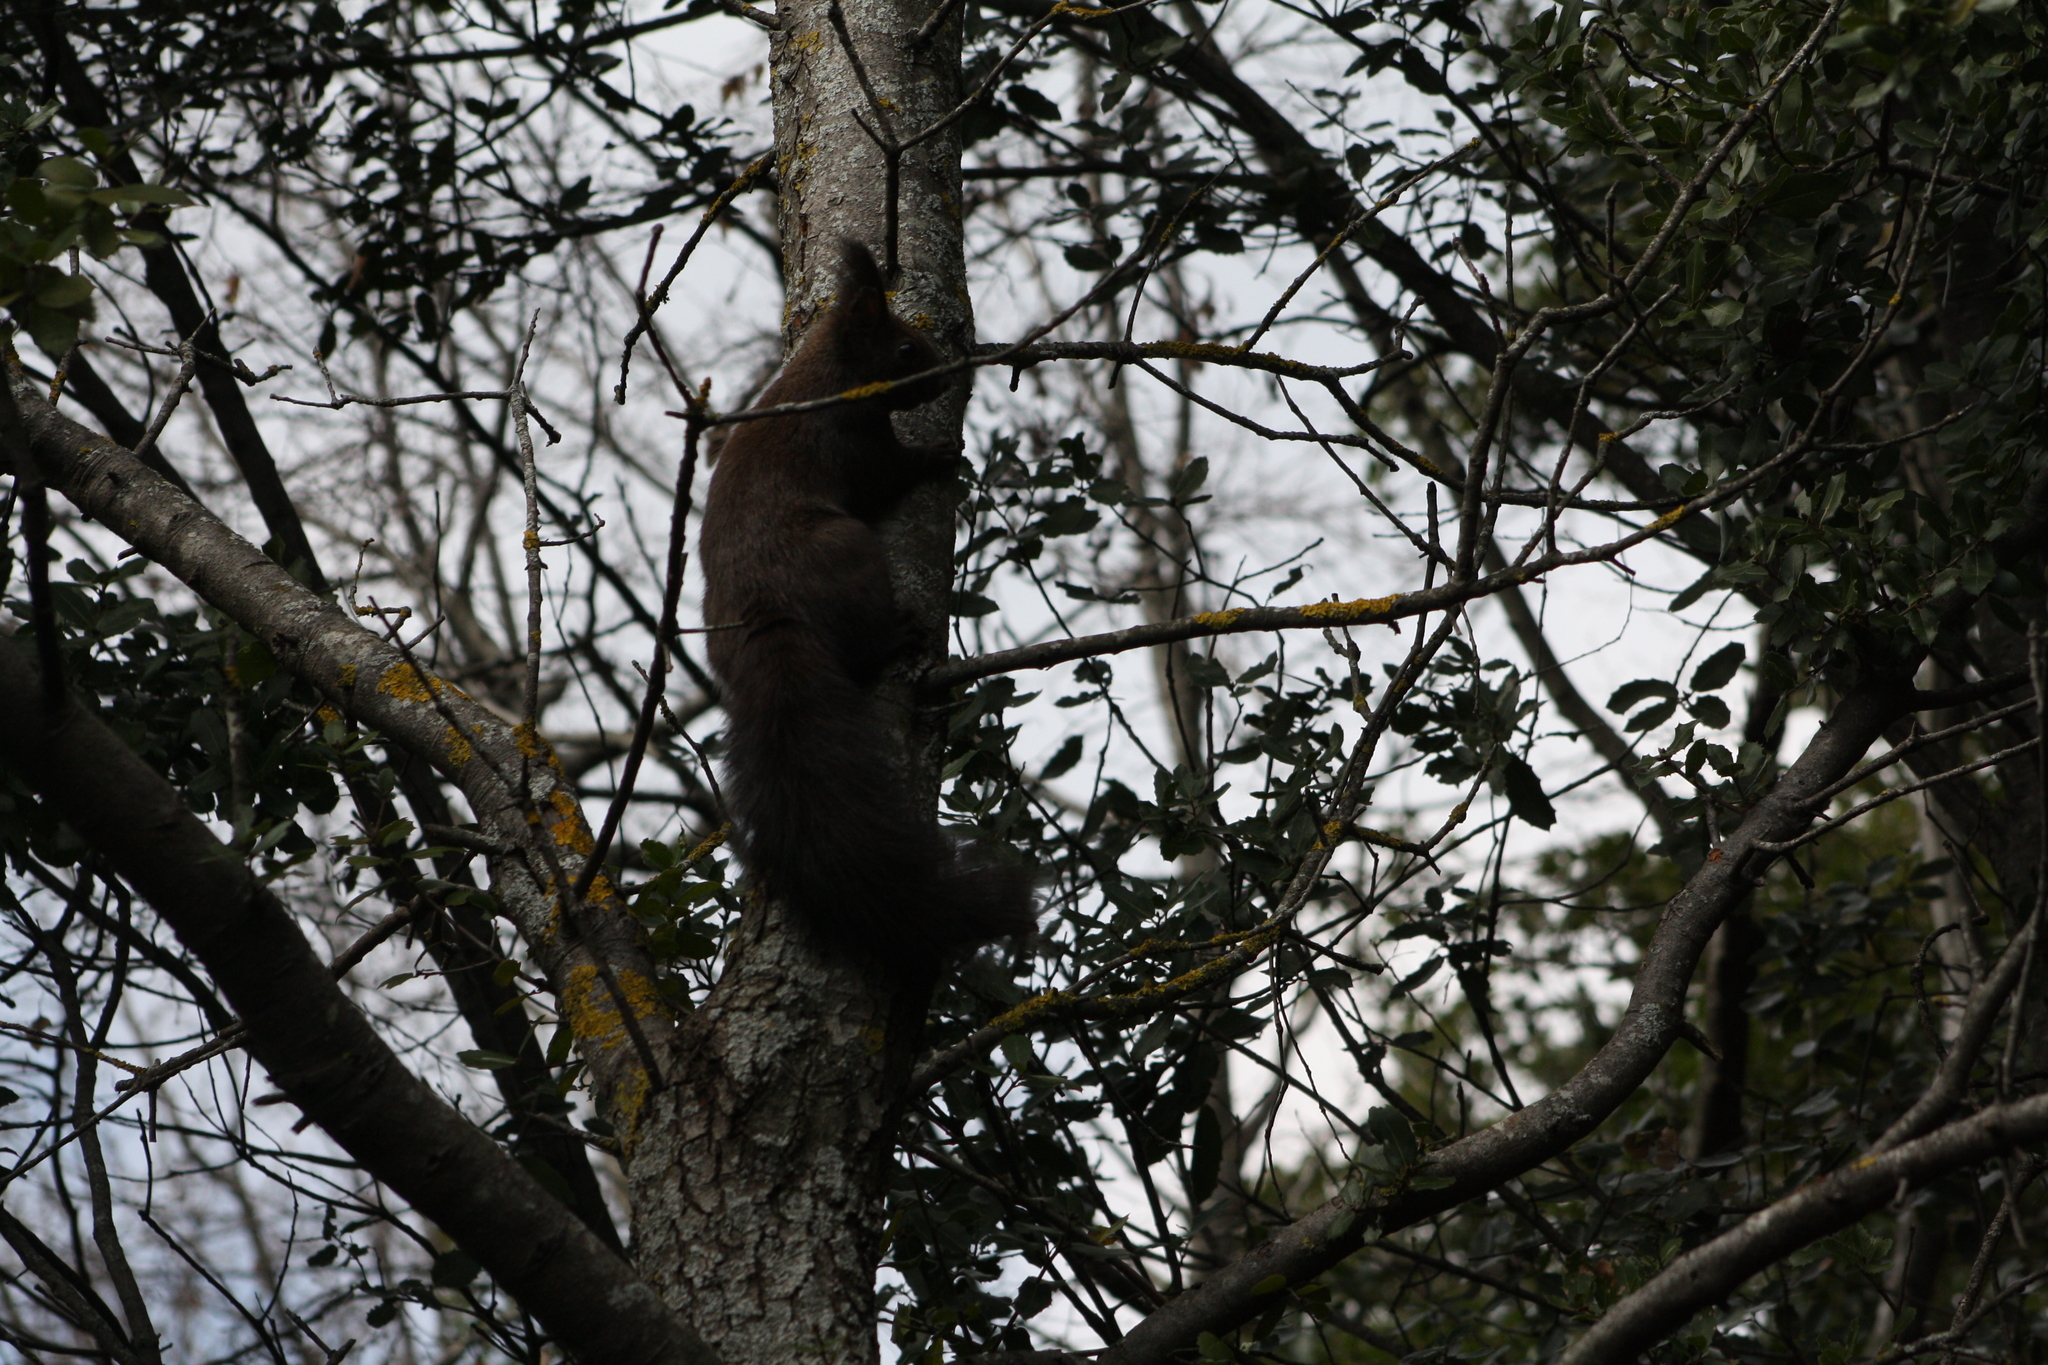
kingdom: Animalia
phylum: Chordata
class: Mammalia
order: Rodentia
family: Sciuridae
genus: Sciurus
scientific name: Sciurus vulgaris
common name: Eurasian red squirrel
